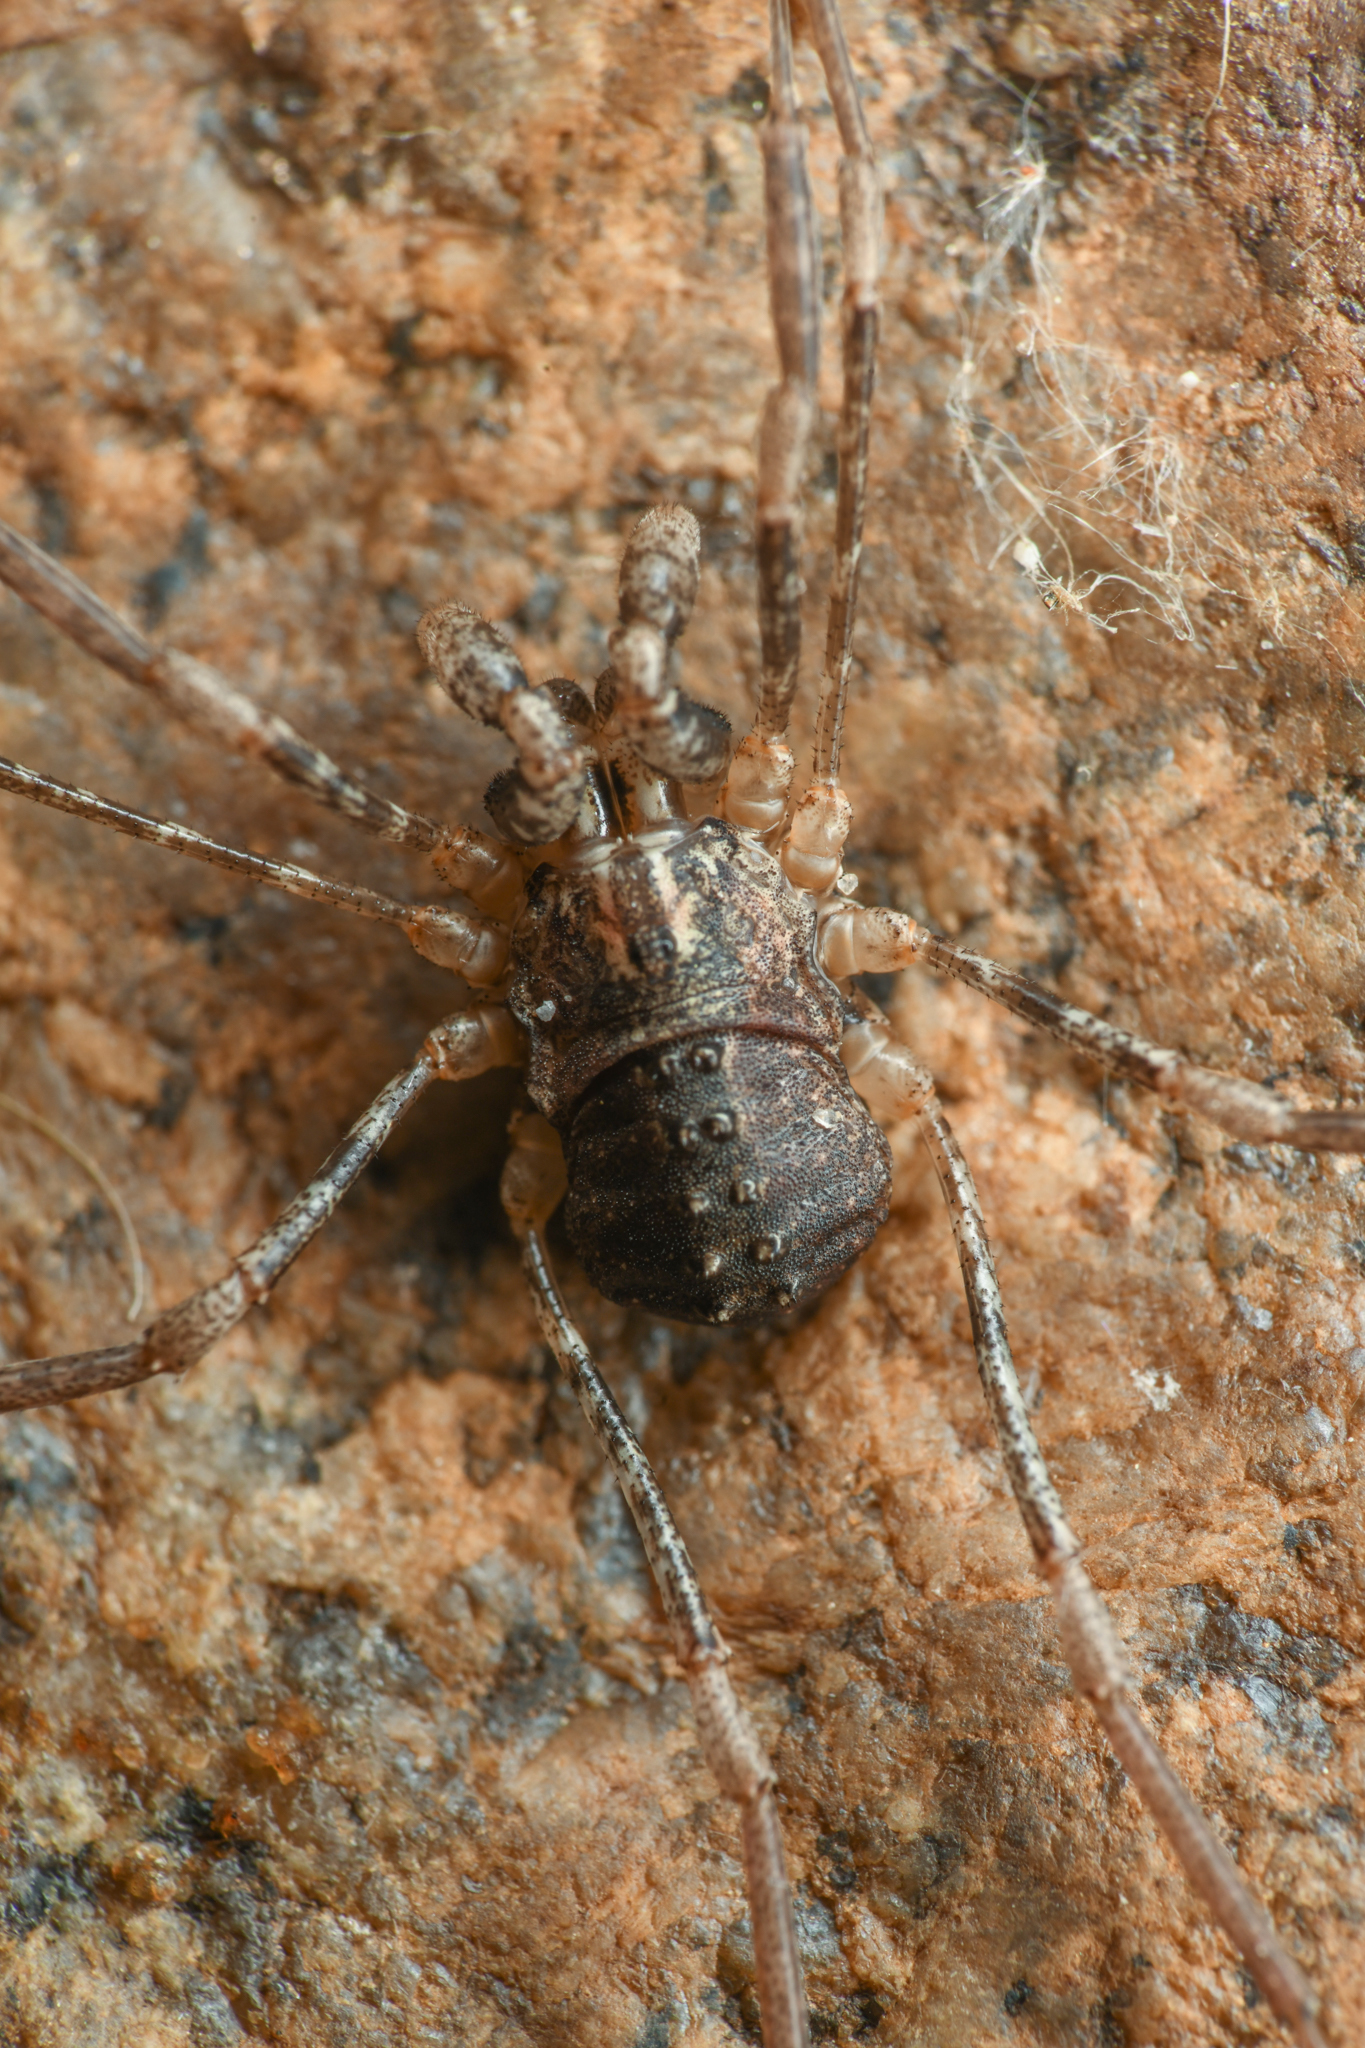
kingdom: Animalia
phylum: Arthropoda
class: Arachnida
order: Opiliones
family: Protolophidae
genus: Protolophus
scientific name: Protolophus singularis
